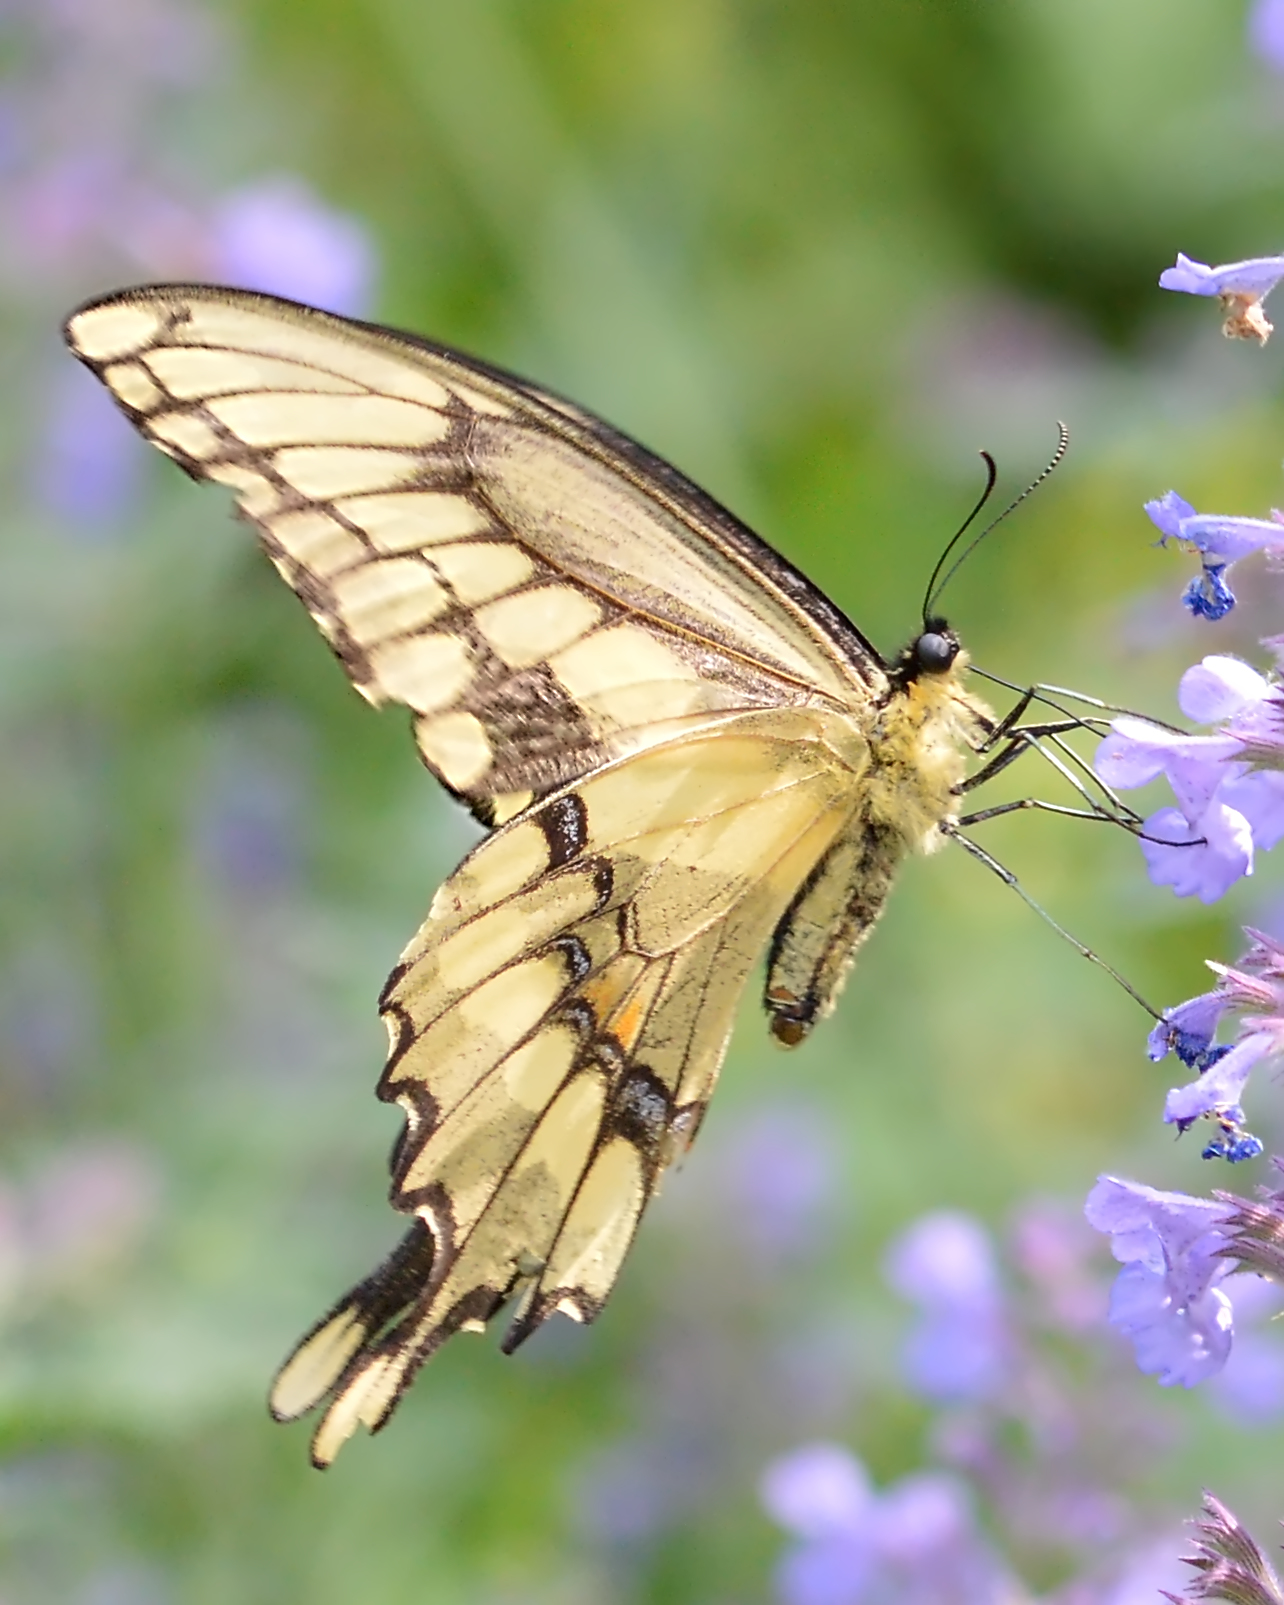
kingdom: Animalia
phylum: Arthropoda
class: Insecta
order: Lepidoptera
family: Papilionidae
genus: Papilio
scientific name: Papilio cresphontes
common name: Giant swallowtail
